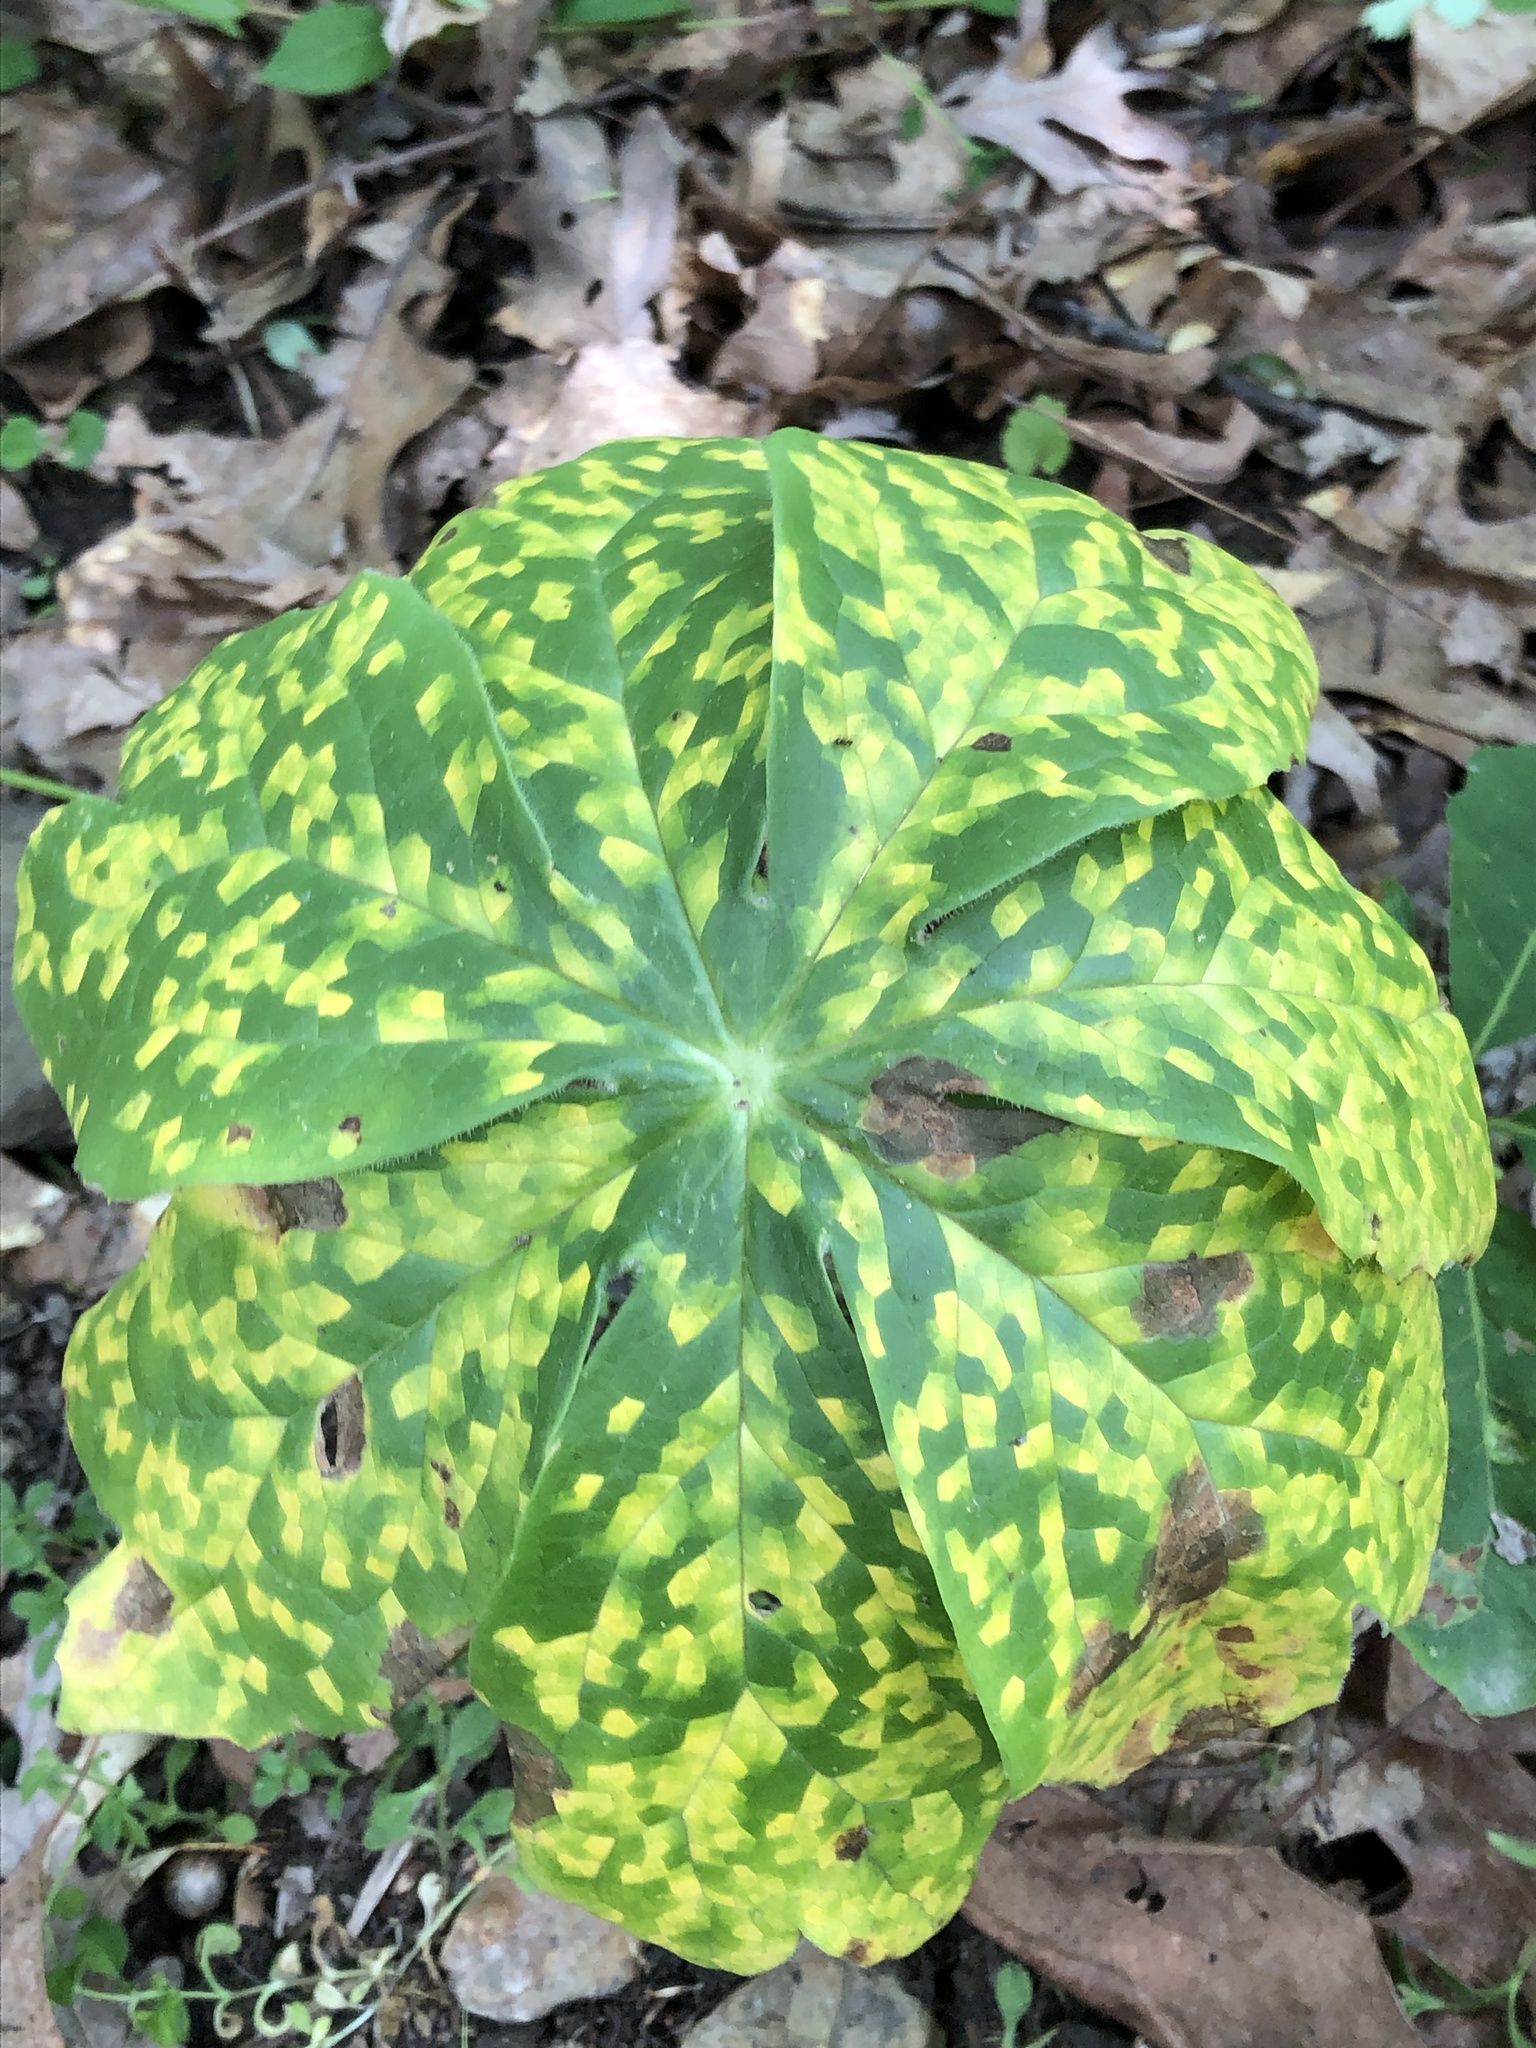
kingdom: Fungi
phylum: Basidiomycota
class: Pucciniomycetes
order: Pucciniales
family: Pucciniaceae
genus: Puccinia
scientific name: Puccinia podophylli
